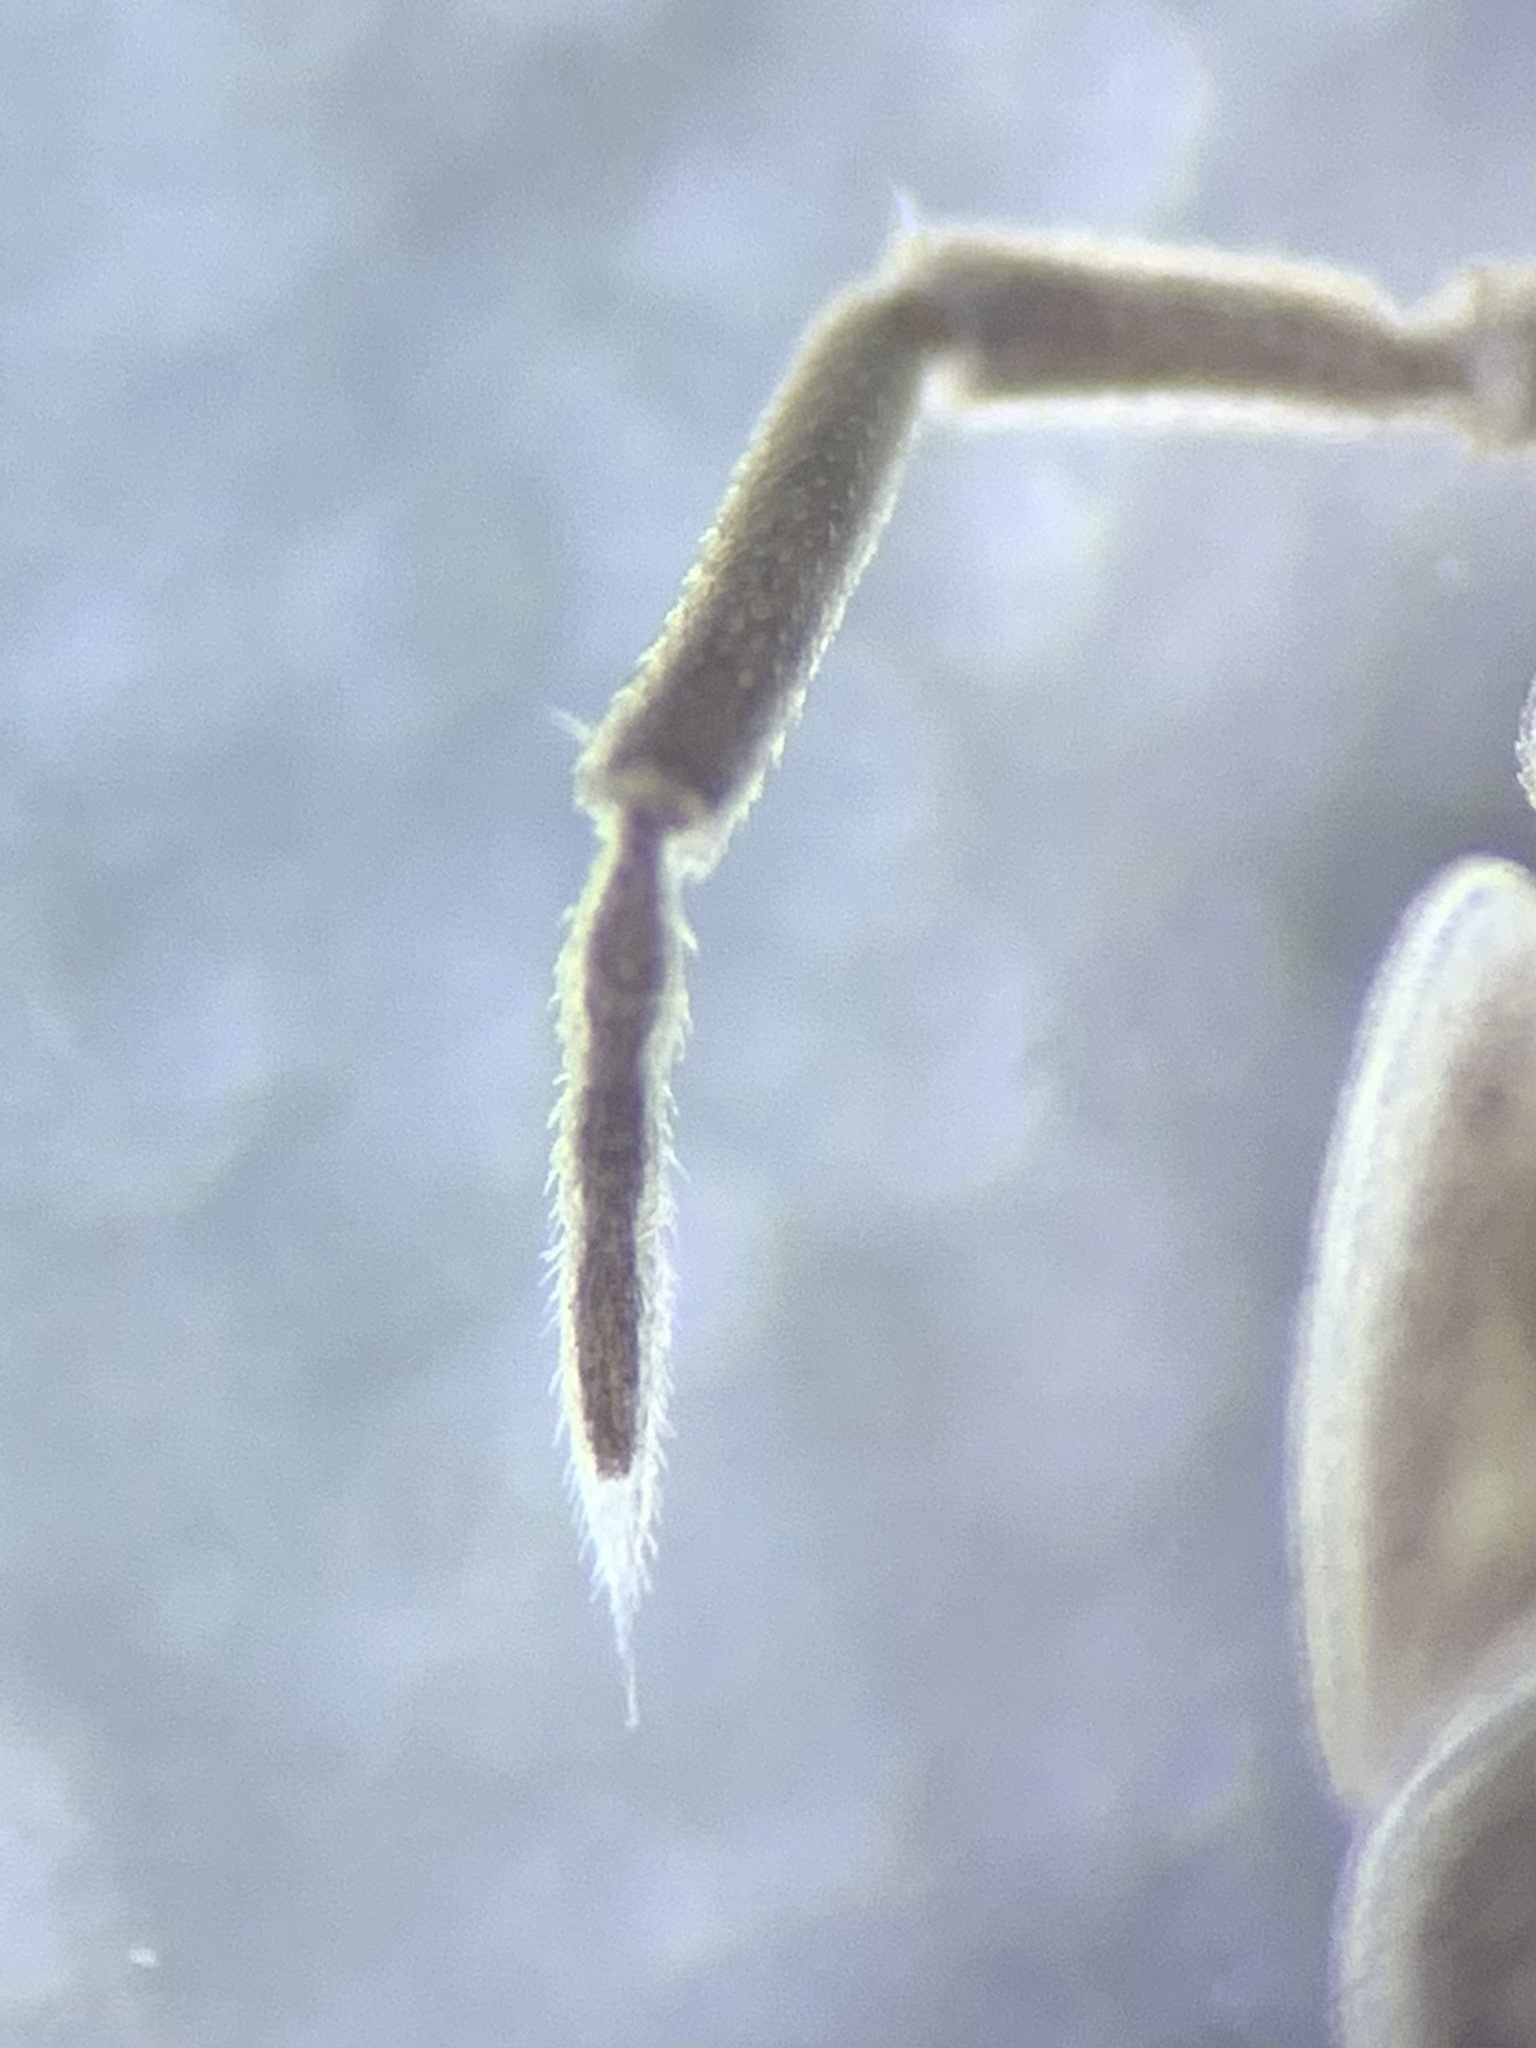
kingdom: Animalia
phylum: Arthropoda
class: Malacostraca
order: Isopoda
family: Oniscidae
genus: Oniscus
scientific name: Oniscus asellus
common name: Common shiny woodlouse
